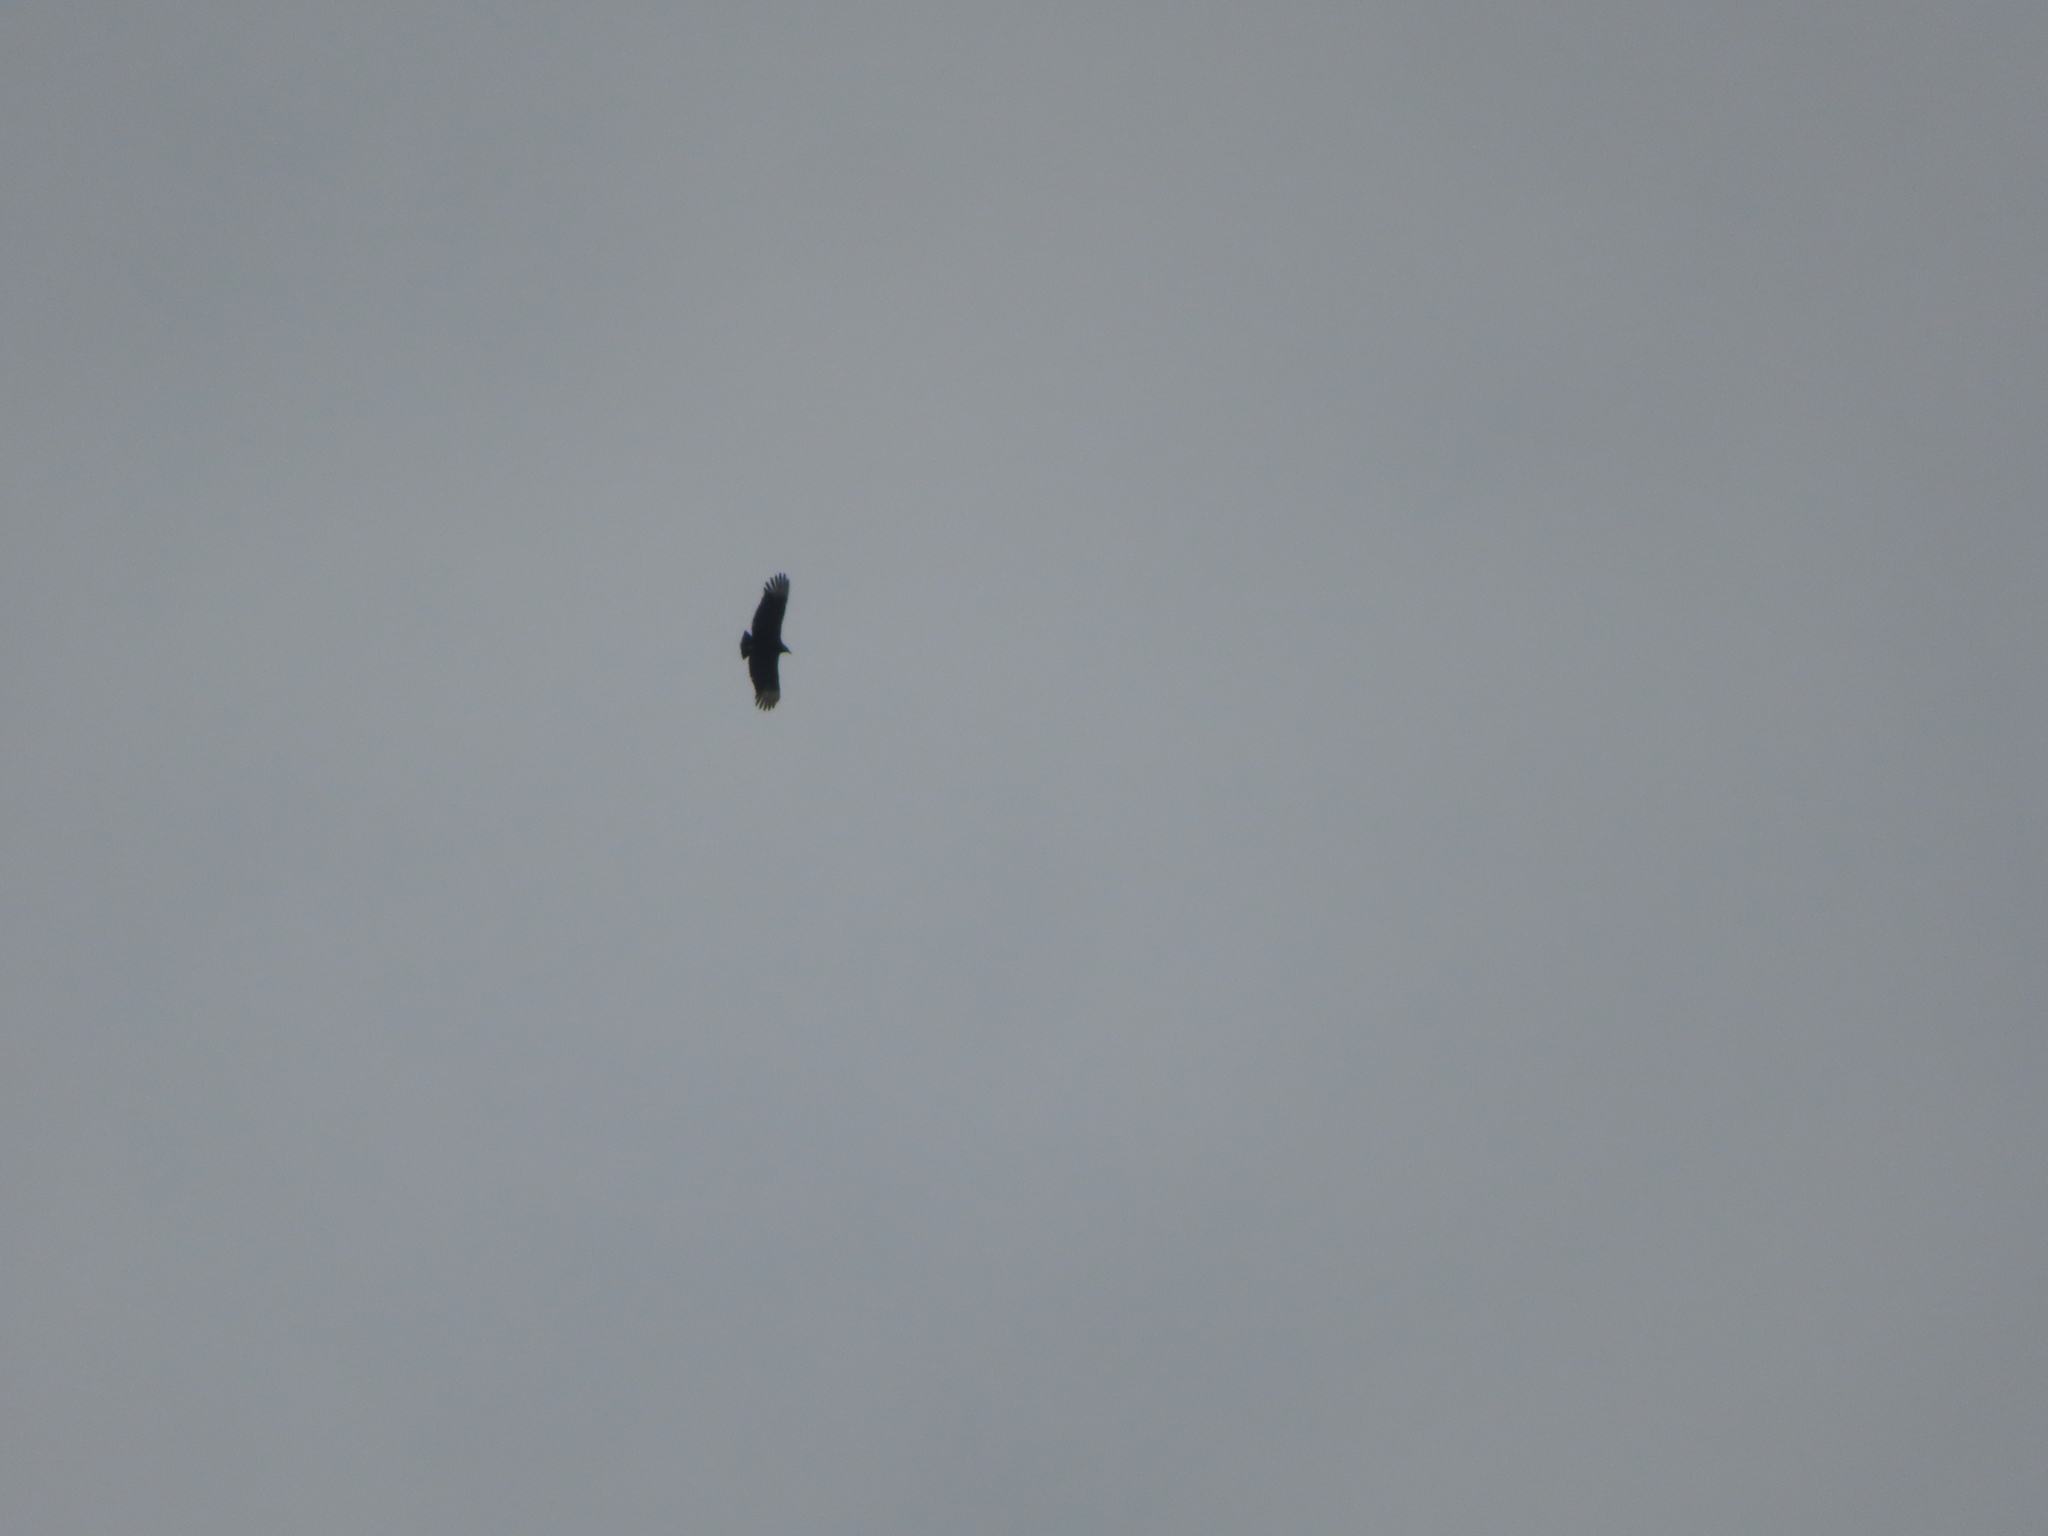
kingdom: Animalia
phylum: Chordata
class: Aves
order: Accipitriformes
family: Cathartidae
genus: Coragyps
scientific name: Coragyps atratus
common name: Black vulture
